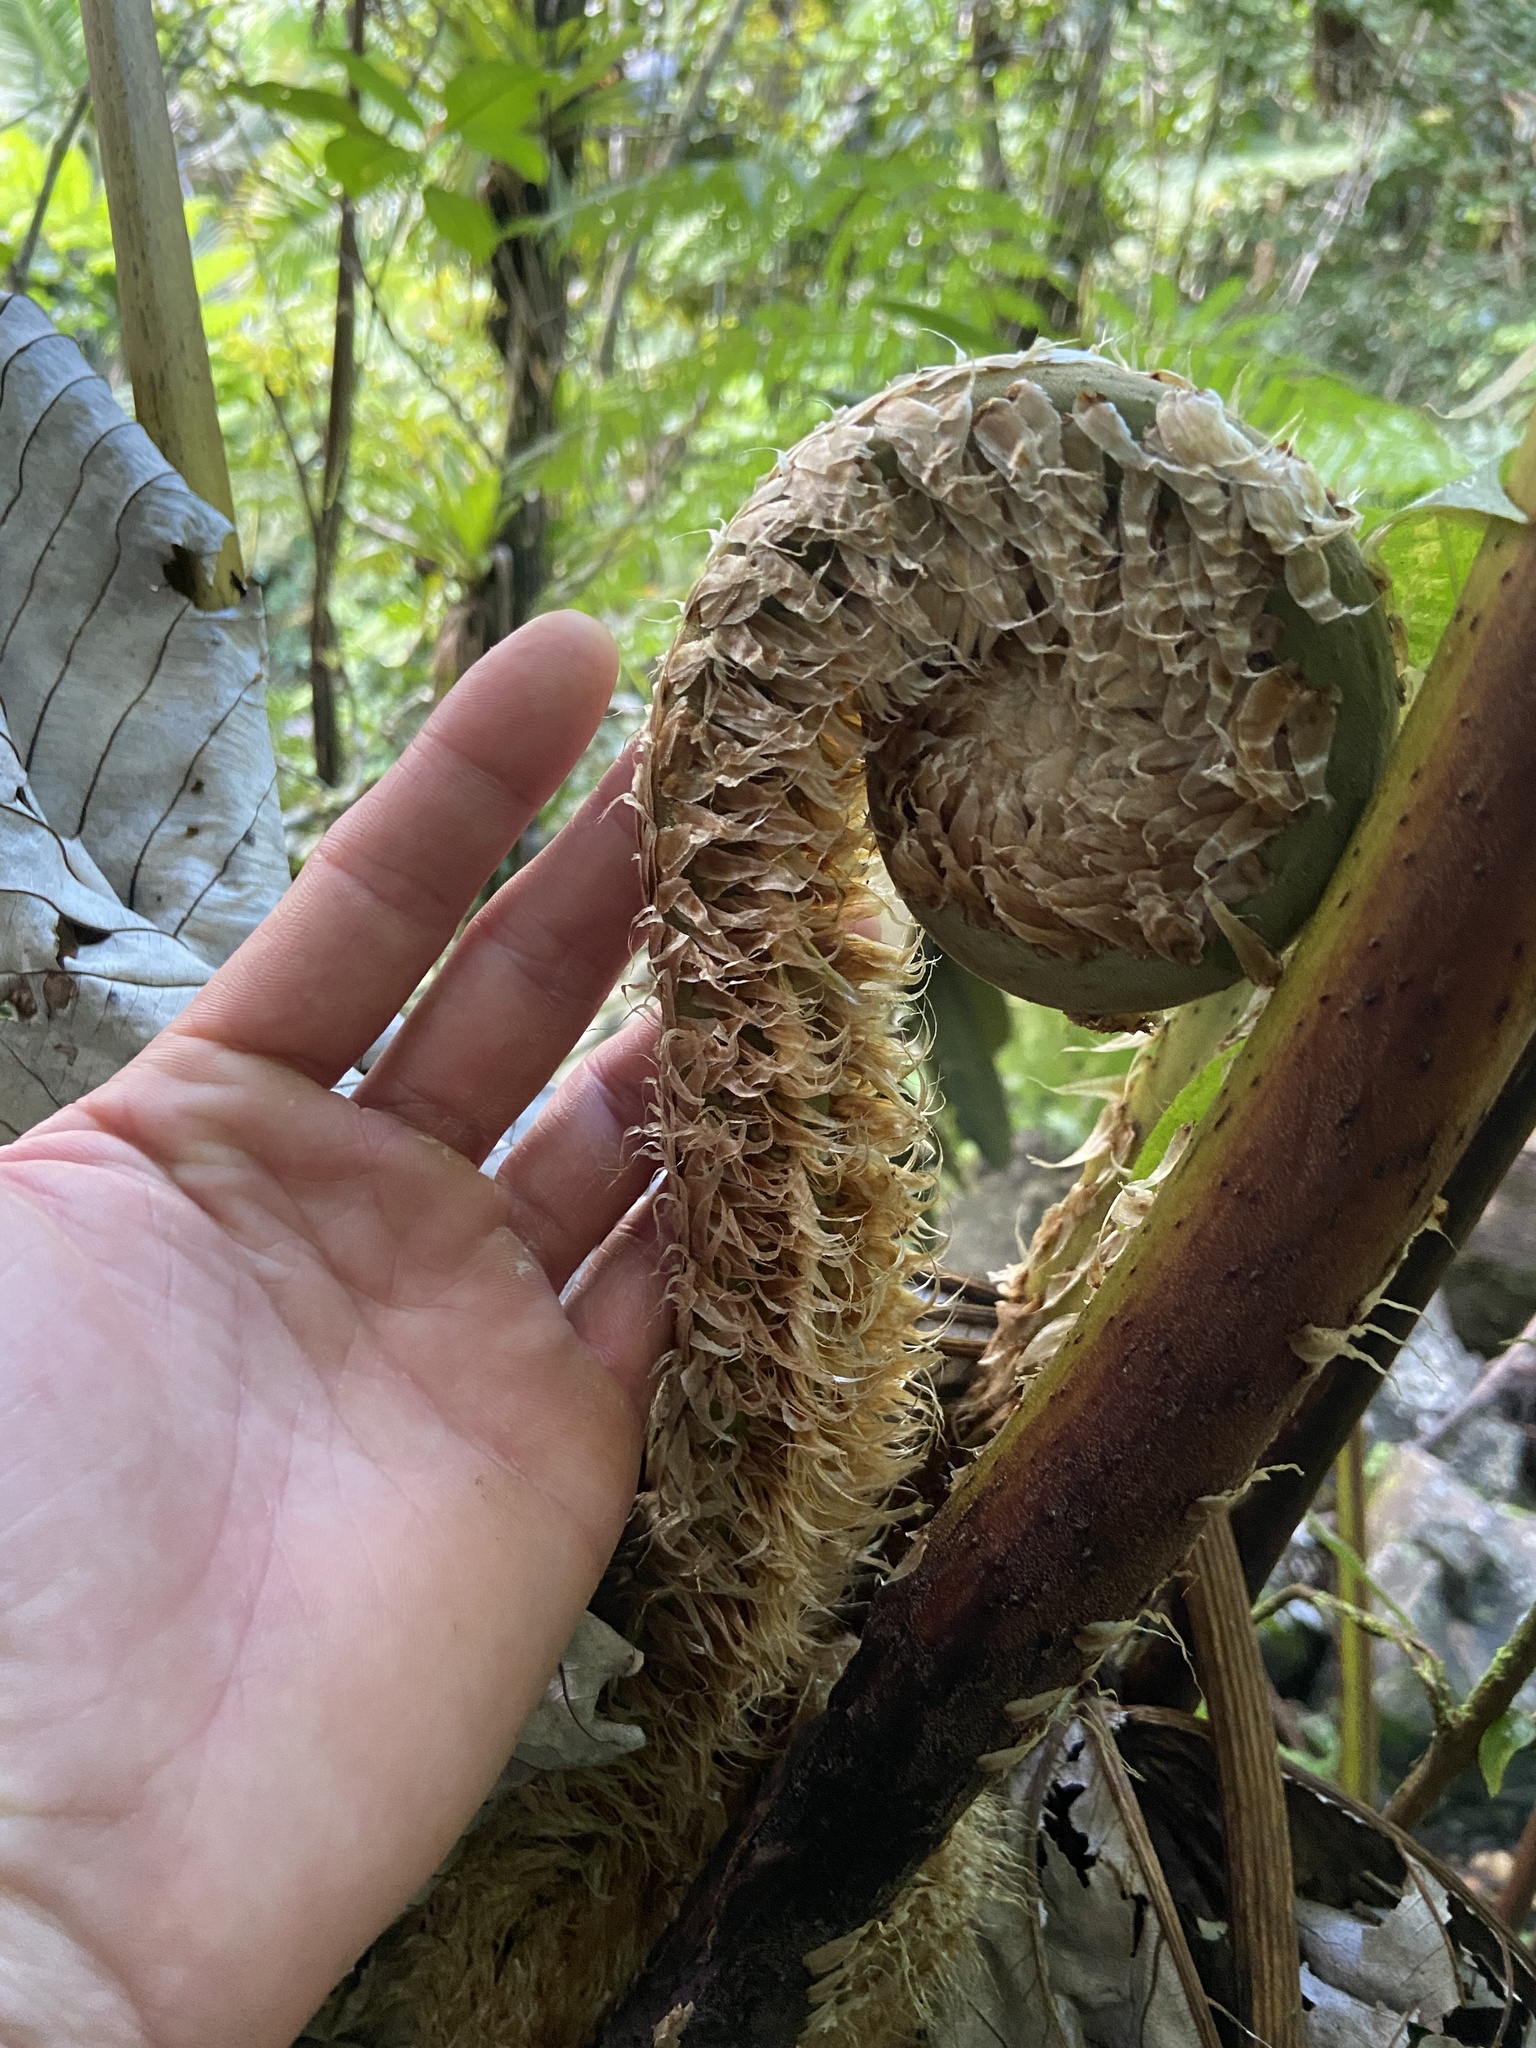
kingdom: Plantae
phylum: Tracheophyta
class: Polypodiopsida
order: Cyatheales
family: Cyatheaceae
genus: Cyathea
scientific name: Cyathea arborea
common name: West indian treefern
